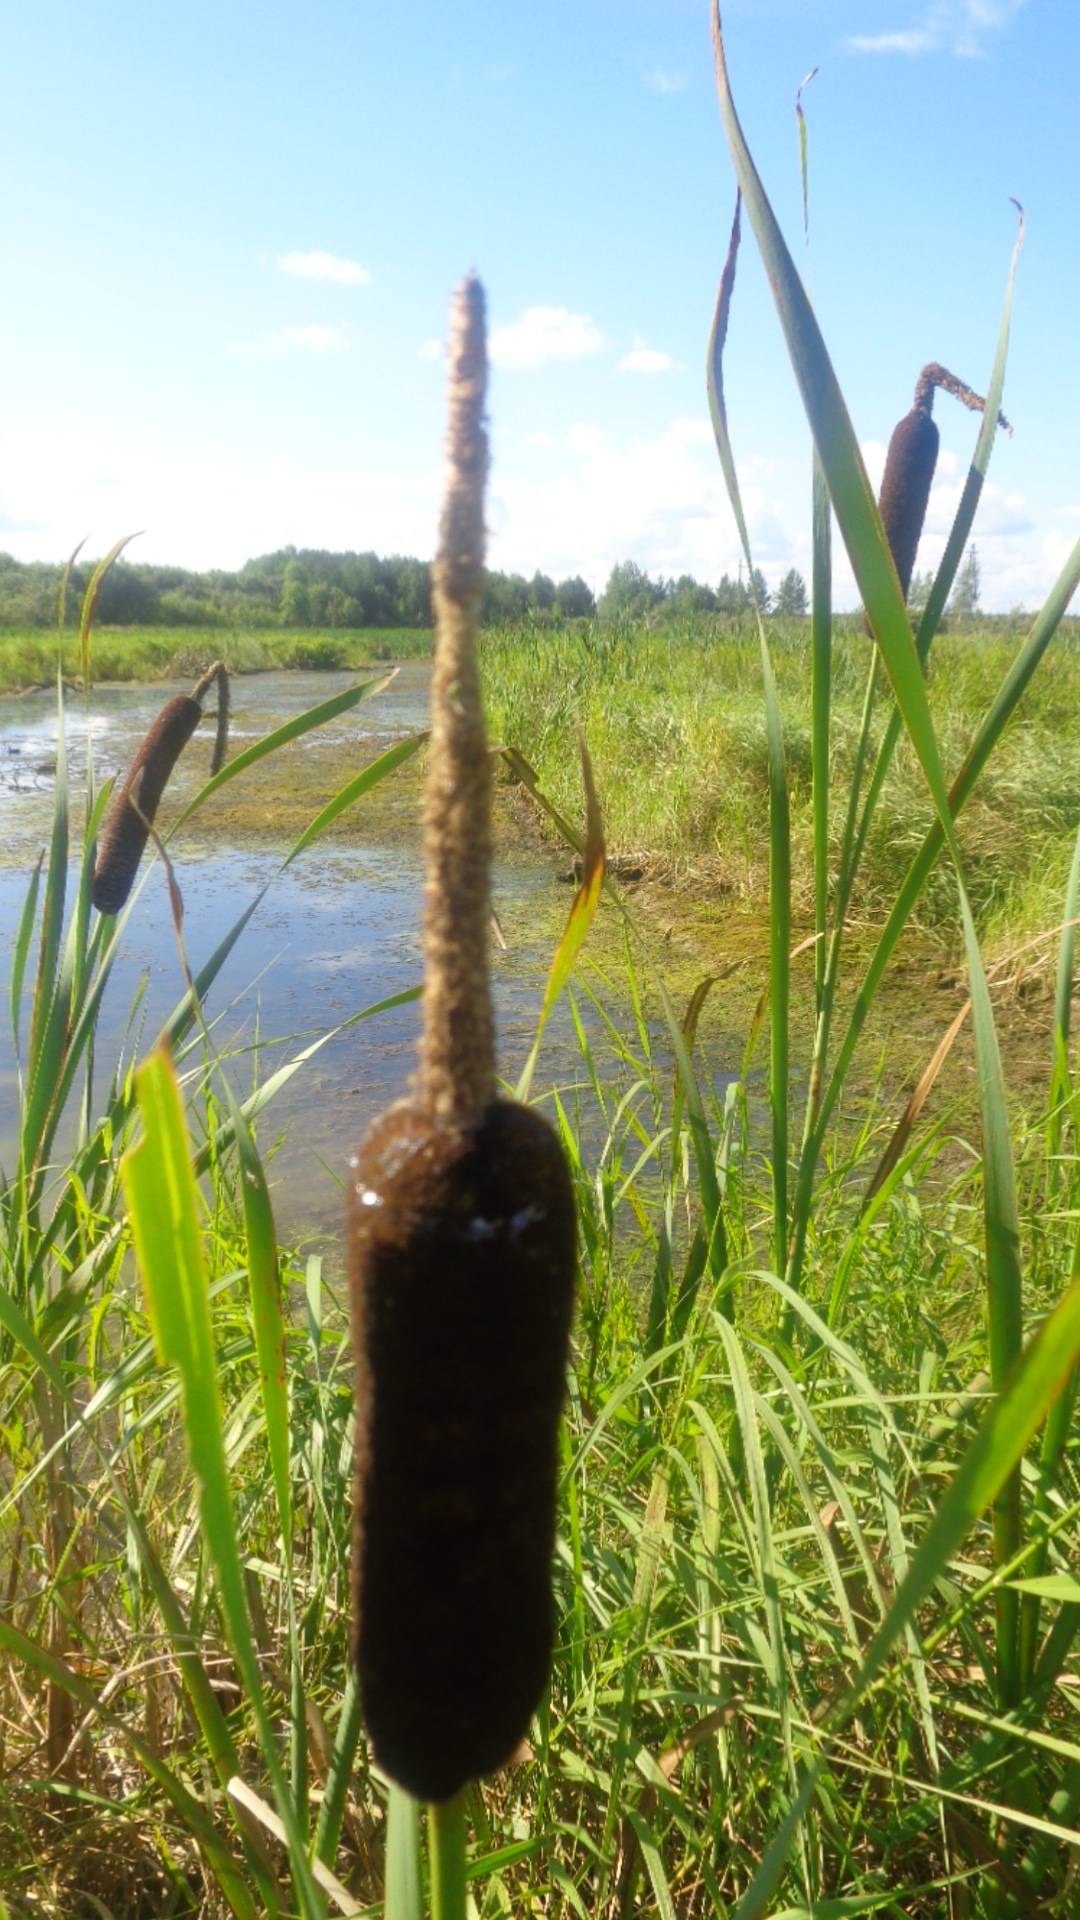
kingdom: Plantae
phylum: Tracheophyta
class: Liliopsida
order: Poales
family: Typhaceae
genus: Typha
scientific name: Typha latifolia
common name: Broadleaf cattail
